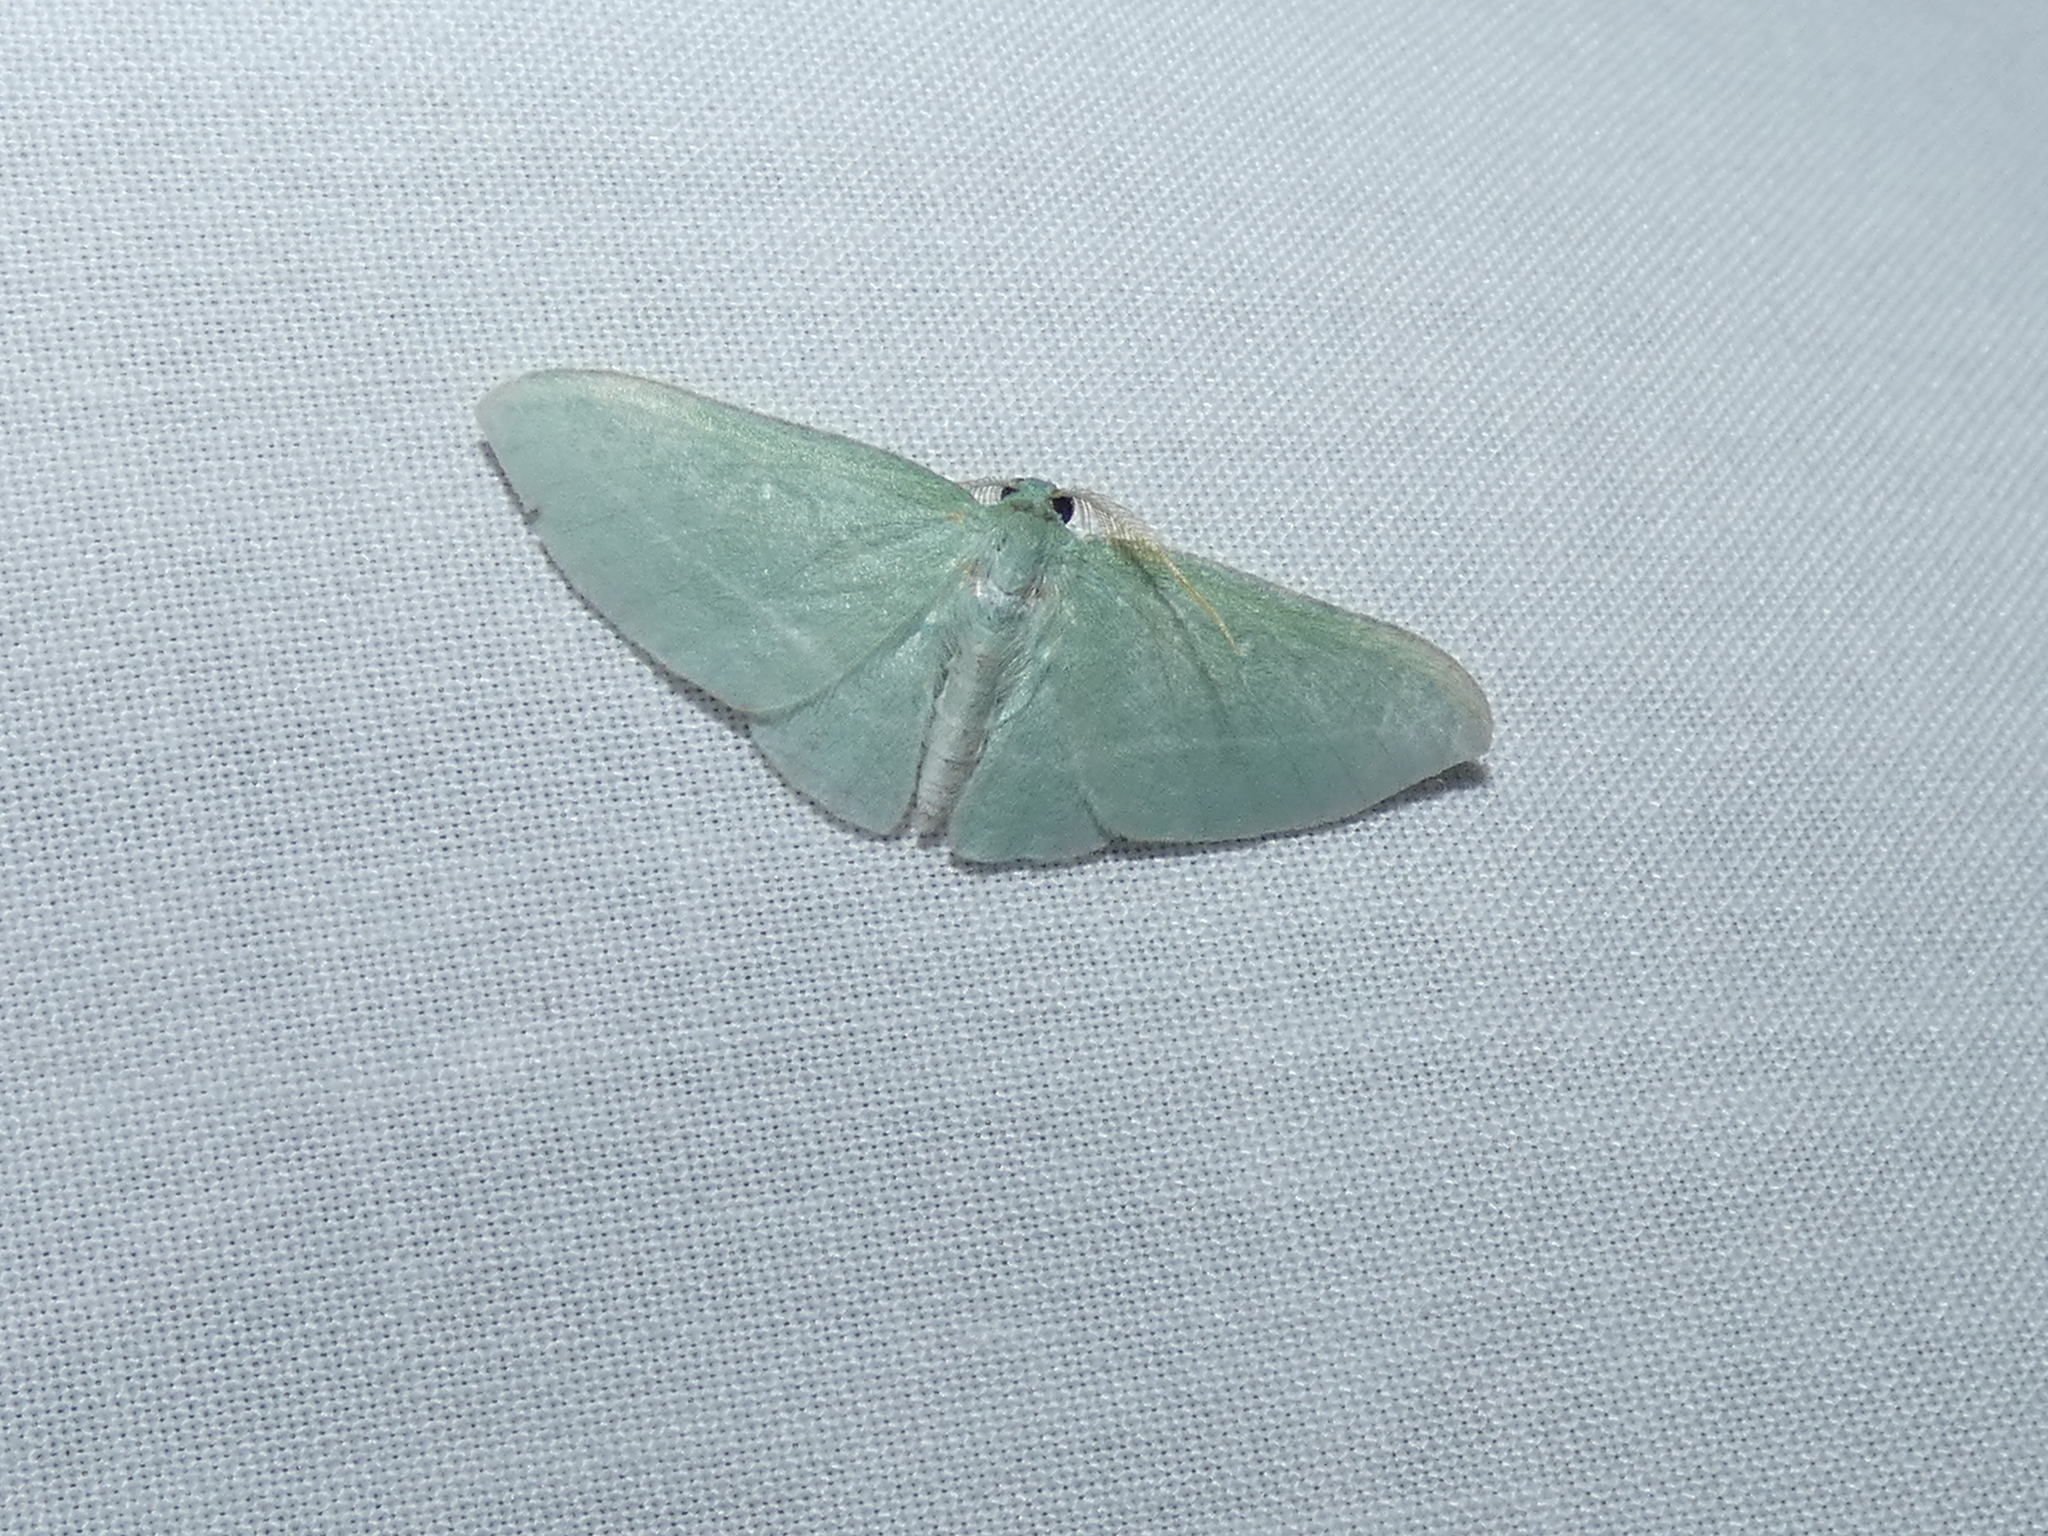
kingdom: Animalia
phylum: Arthropoda
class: Insecta
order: Lepidoptera
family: Geometridae
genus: Dyspteris
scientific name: Dyspteris abortivaria
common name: Bad-wing
